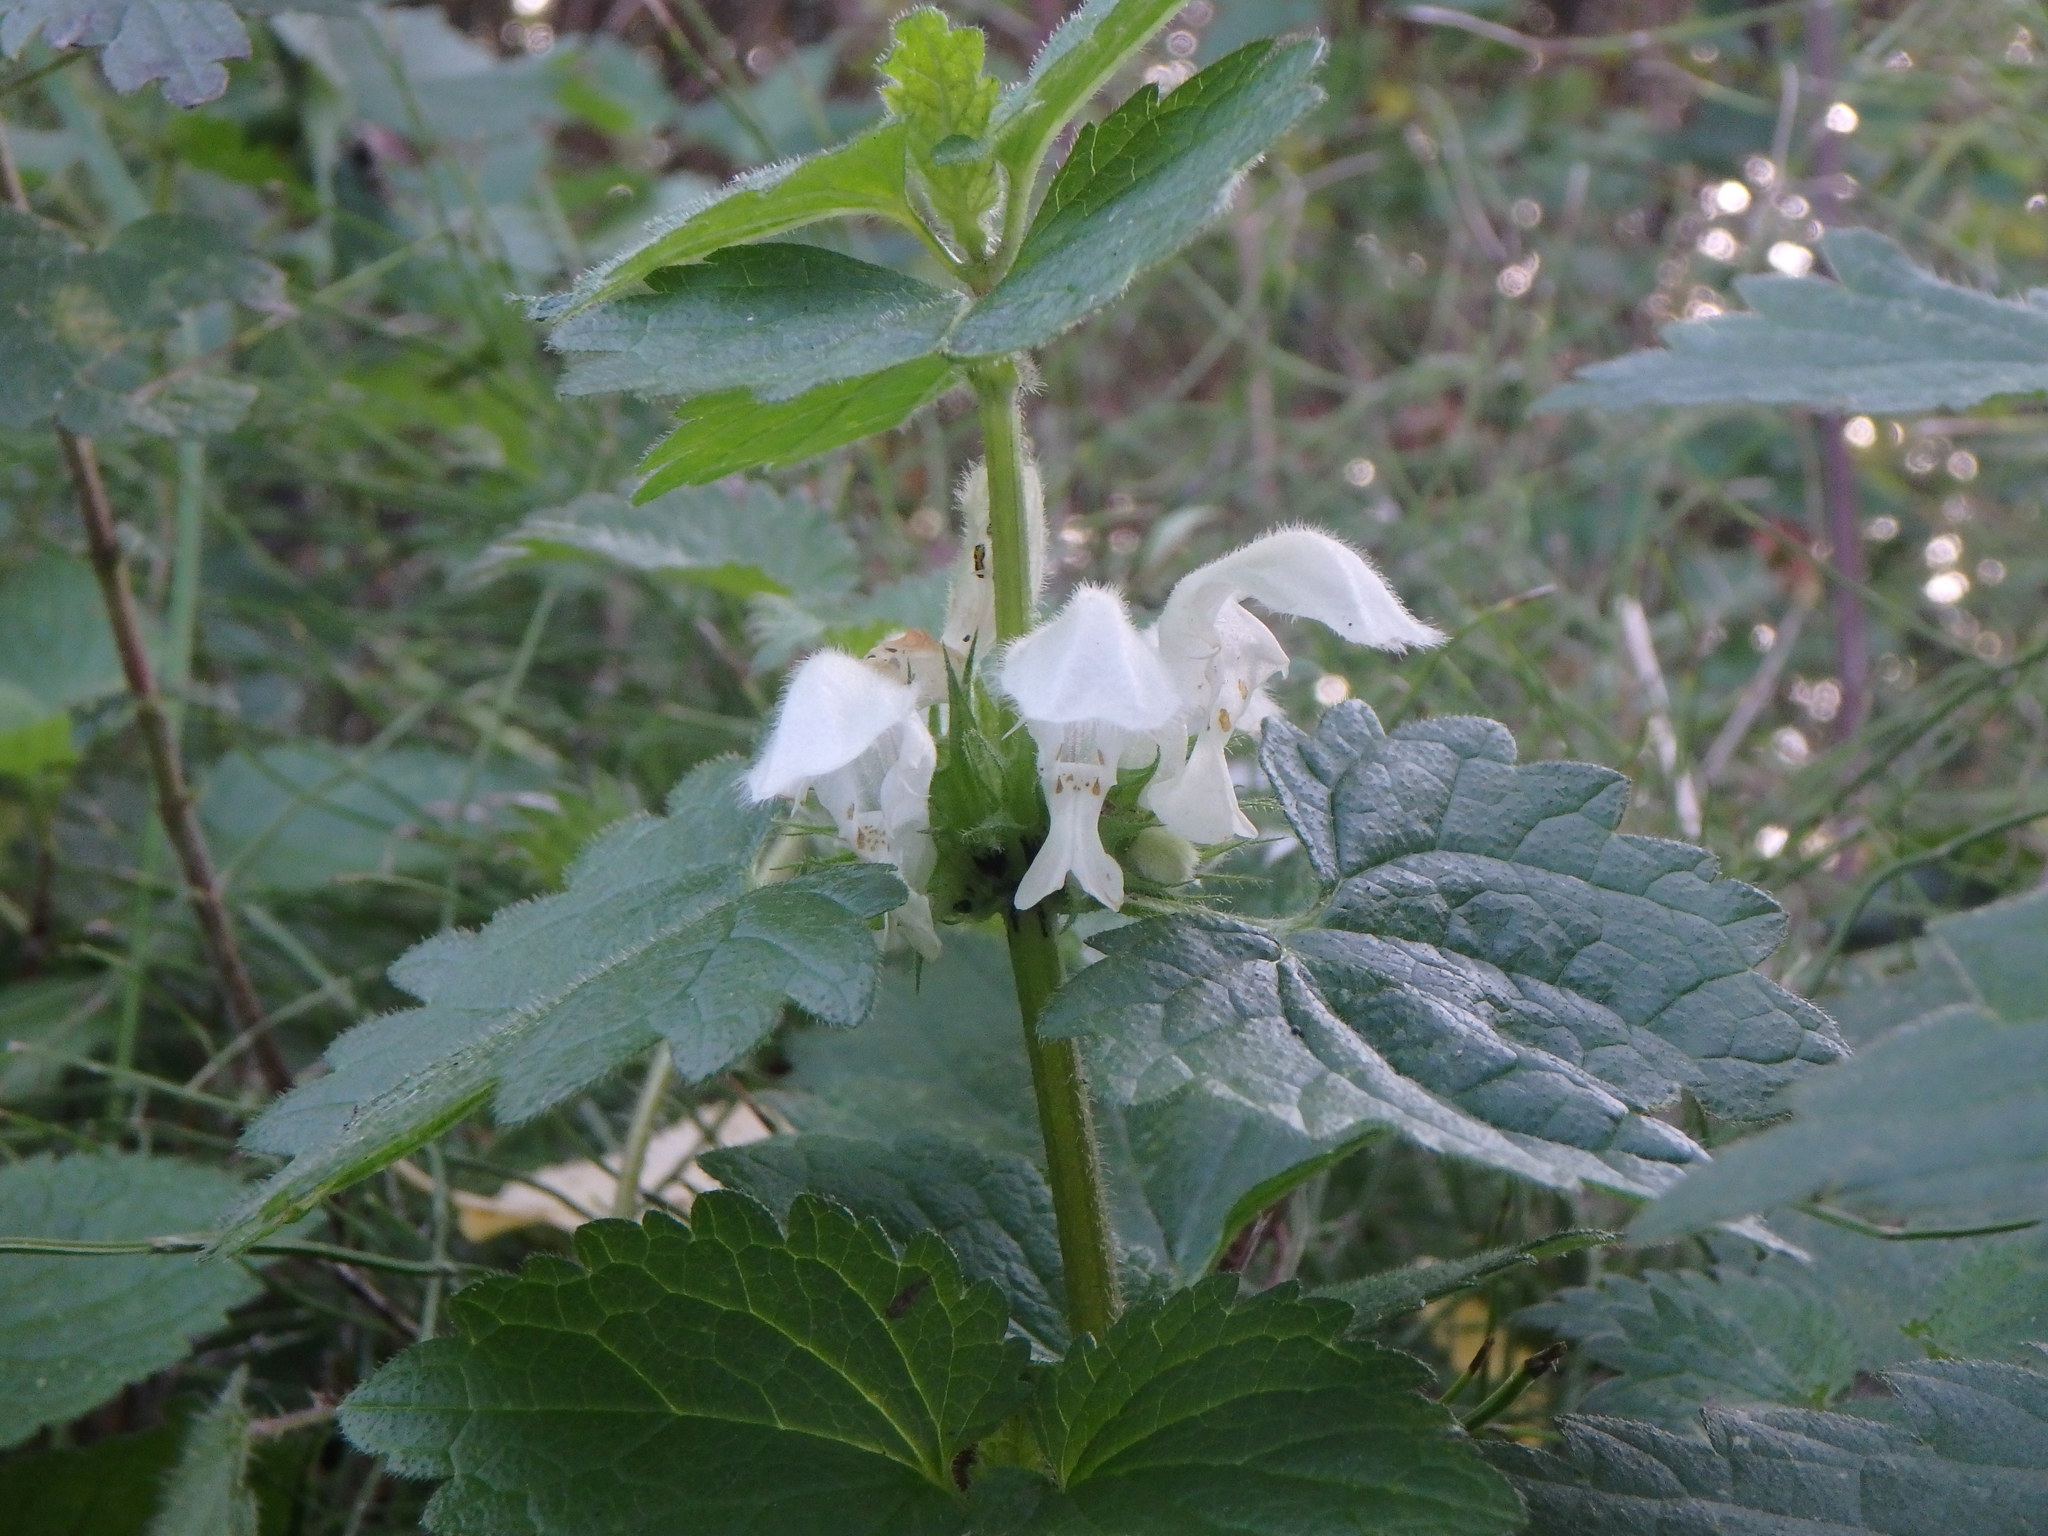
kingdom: Plantae
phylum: Tracheophyta
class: Magnoliopsida
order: Lamiales
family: Lamiaceae
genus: Lamium
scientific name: Lamium album
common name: White dead-nettle
